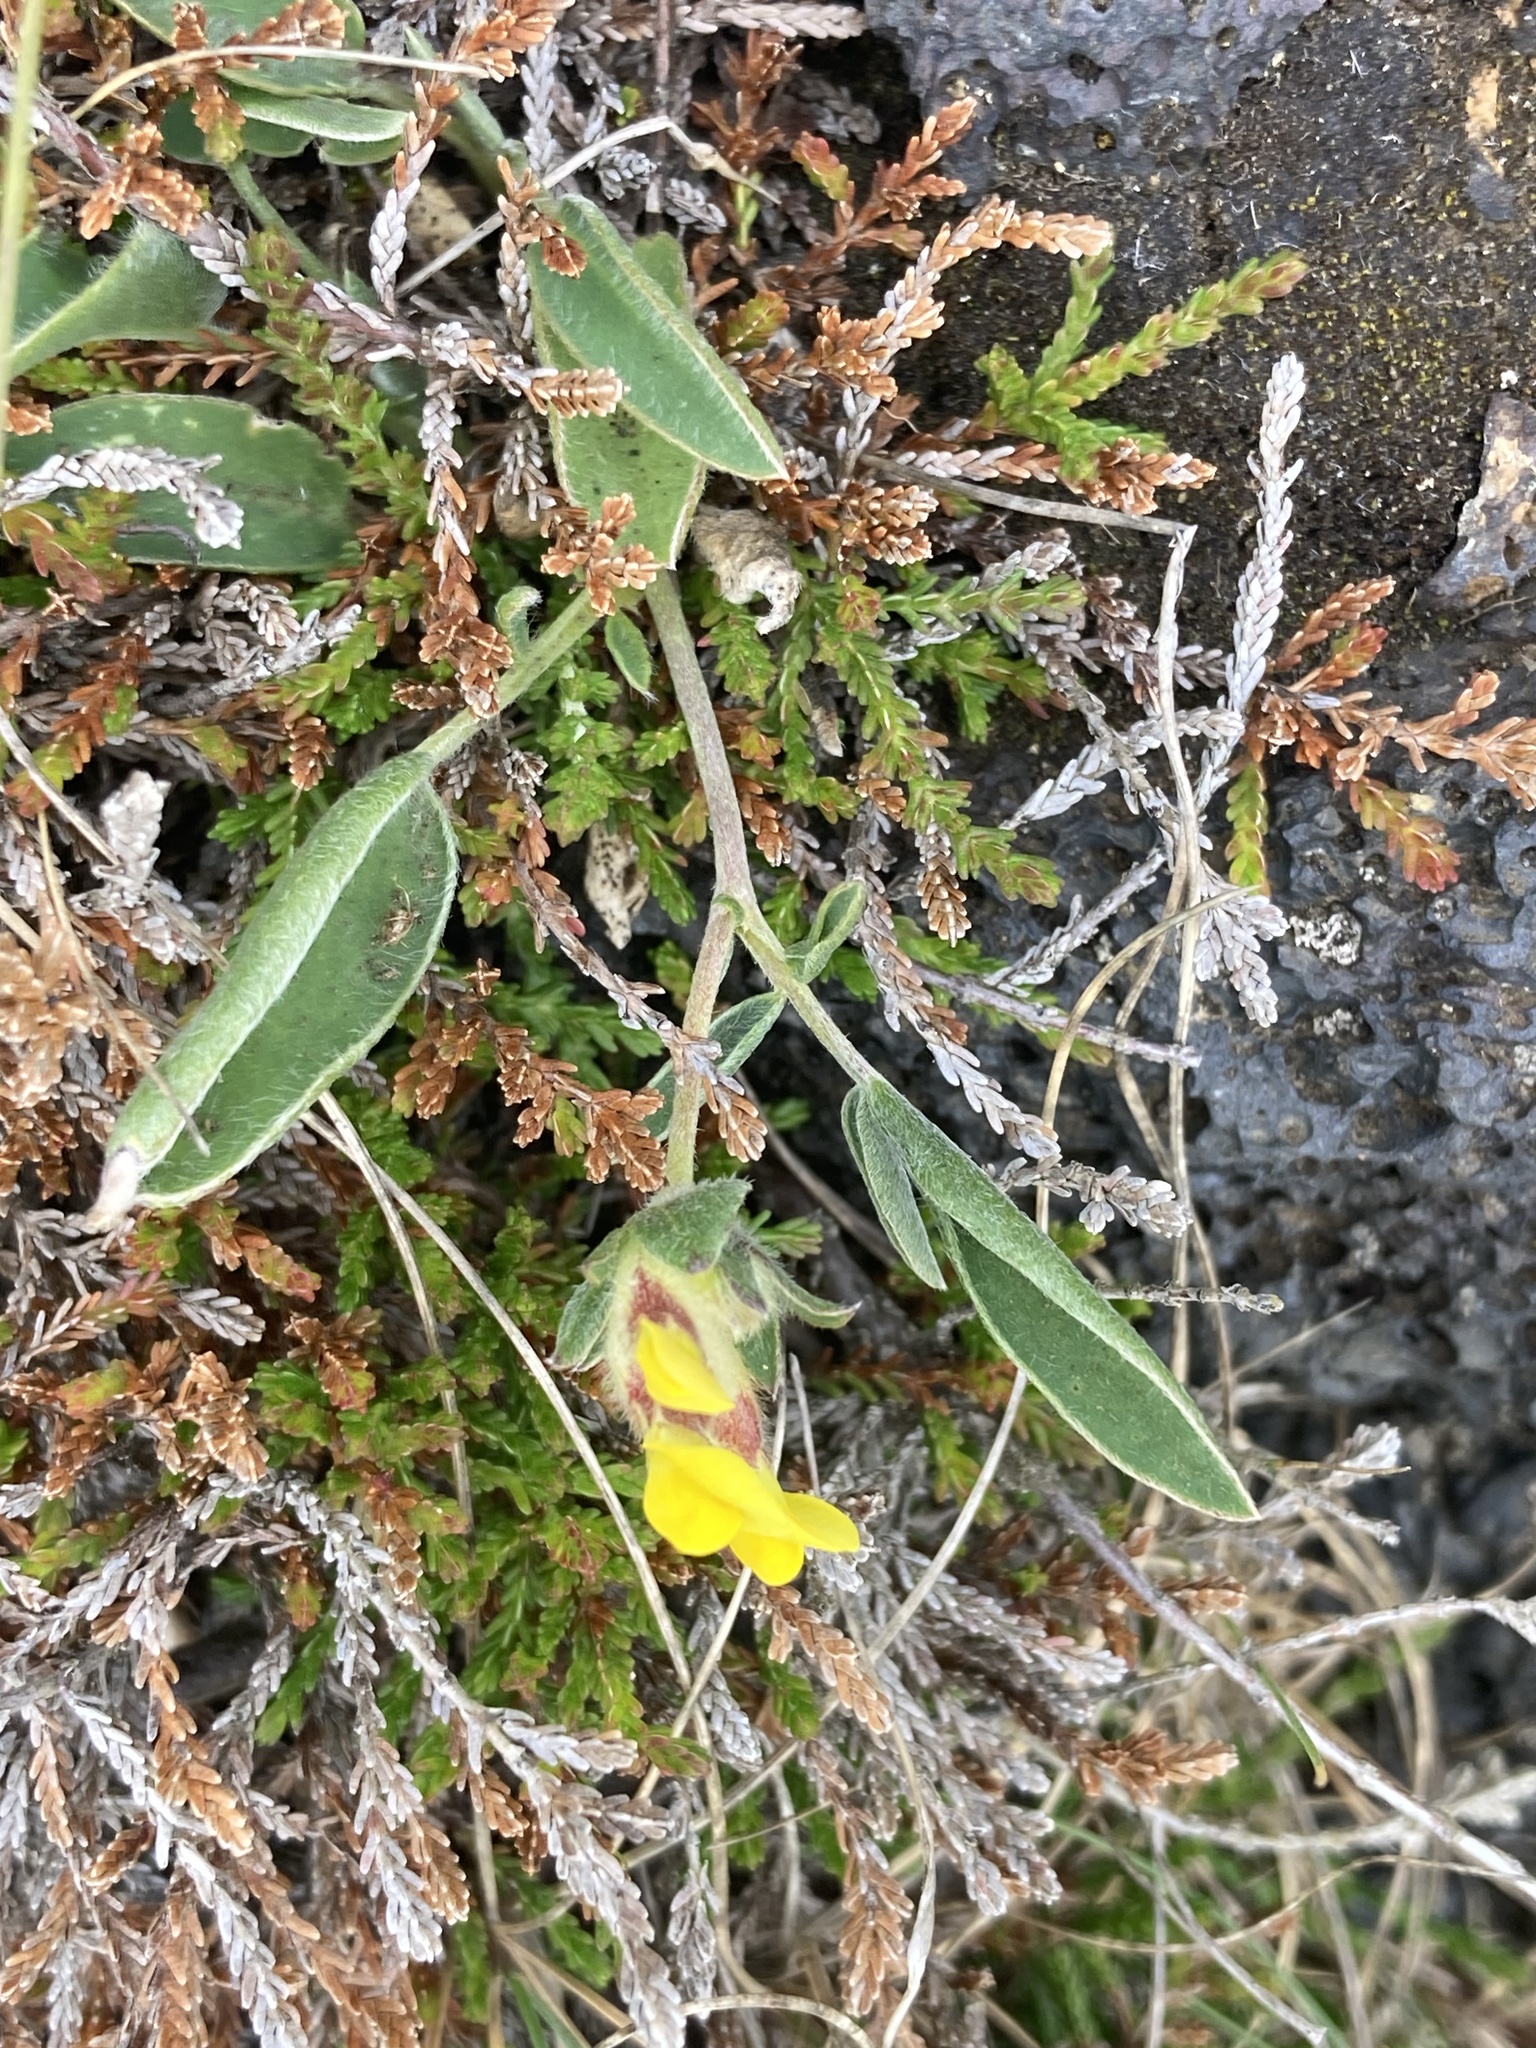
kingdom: Plantae
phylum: Tracheophyta
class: Magnoliopsida
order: Fabales
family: Fabaceae
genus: Anthyllis
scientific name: Anthyllis vulneraria
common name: Kidney vetch
